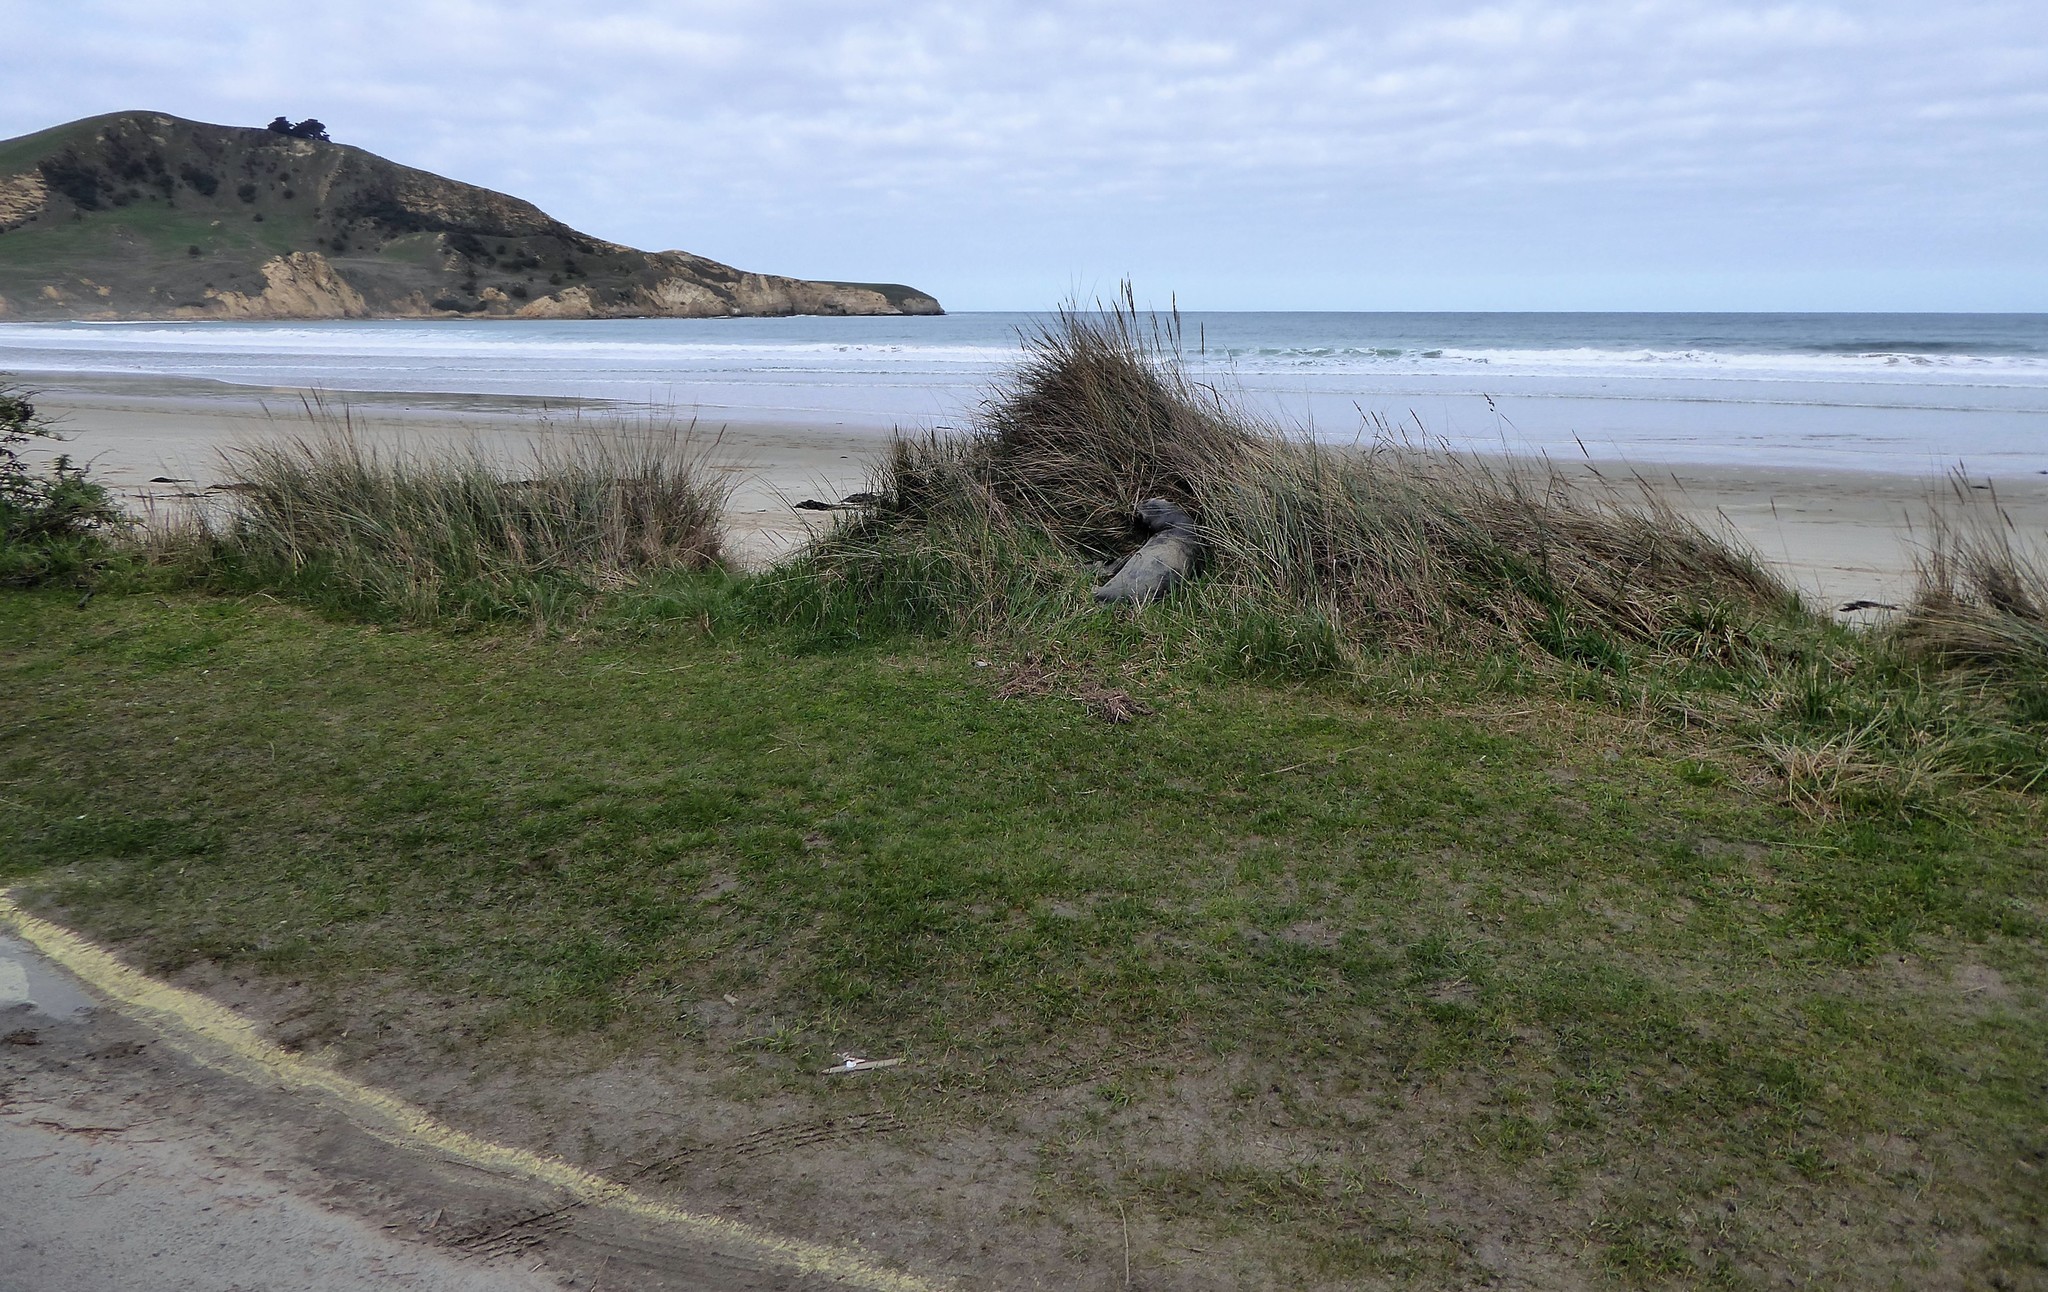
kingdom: Animalia
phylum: Chordata
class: Mammalia
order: Carnivora
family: Otariidae
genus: Arctocephalus
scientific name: Arctocephalus forsteri
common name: New zealand fur seal
